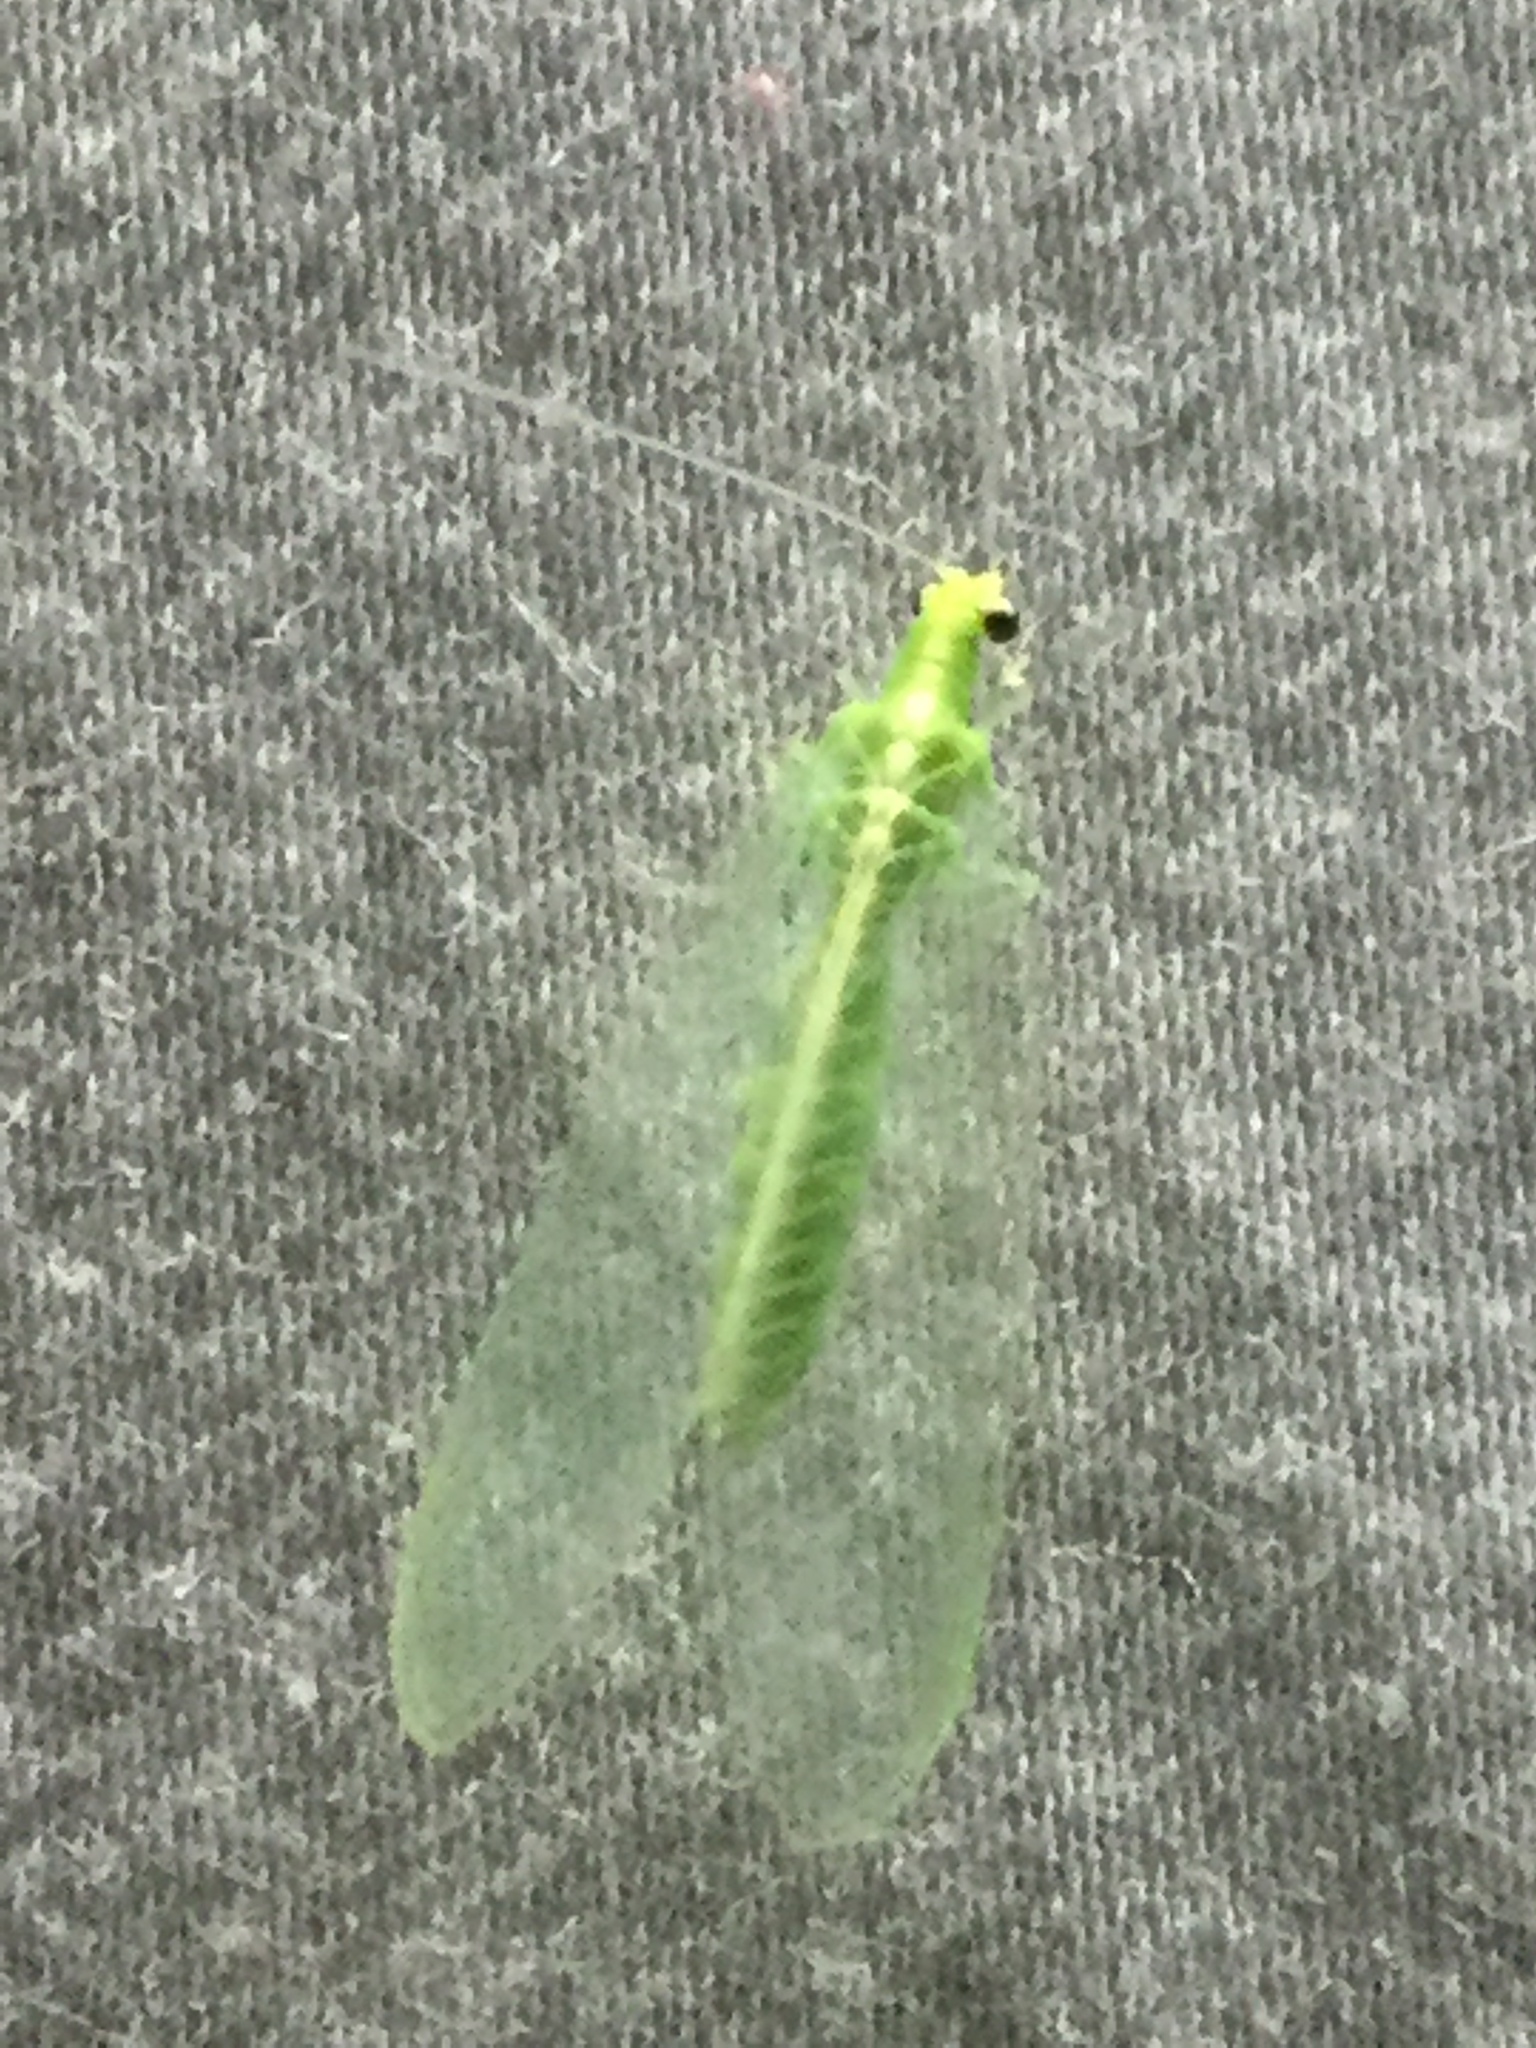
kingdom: Animalia
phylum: Arthropoda
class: Insecta
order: Neuroptera
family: Chrysopidae
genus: Chrysoperla
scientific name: Chrysoperla
